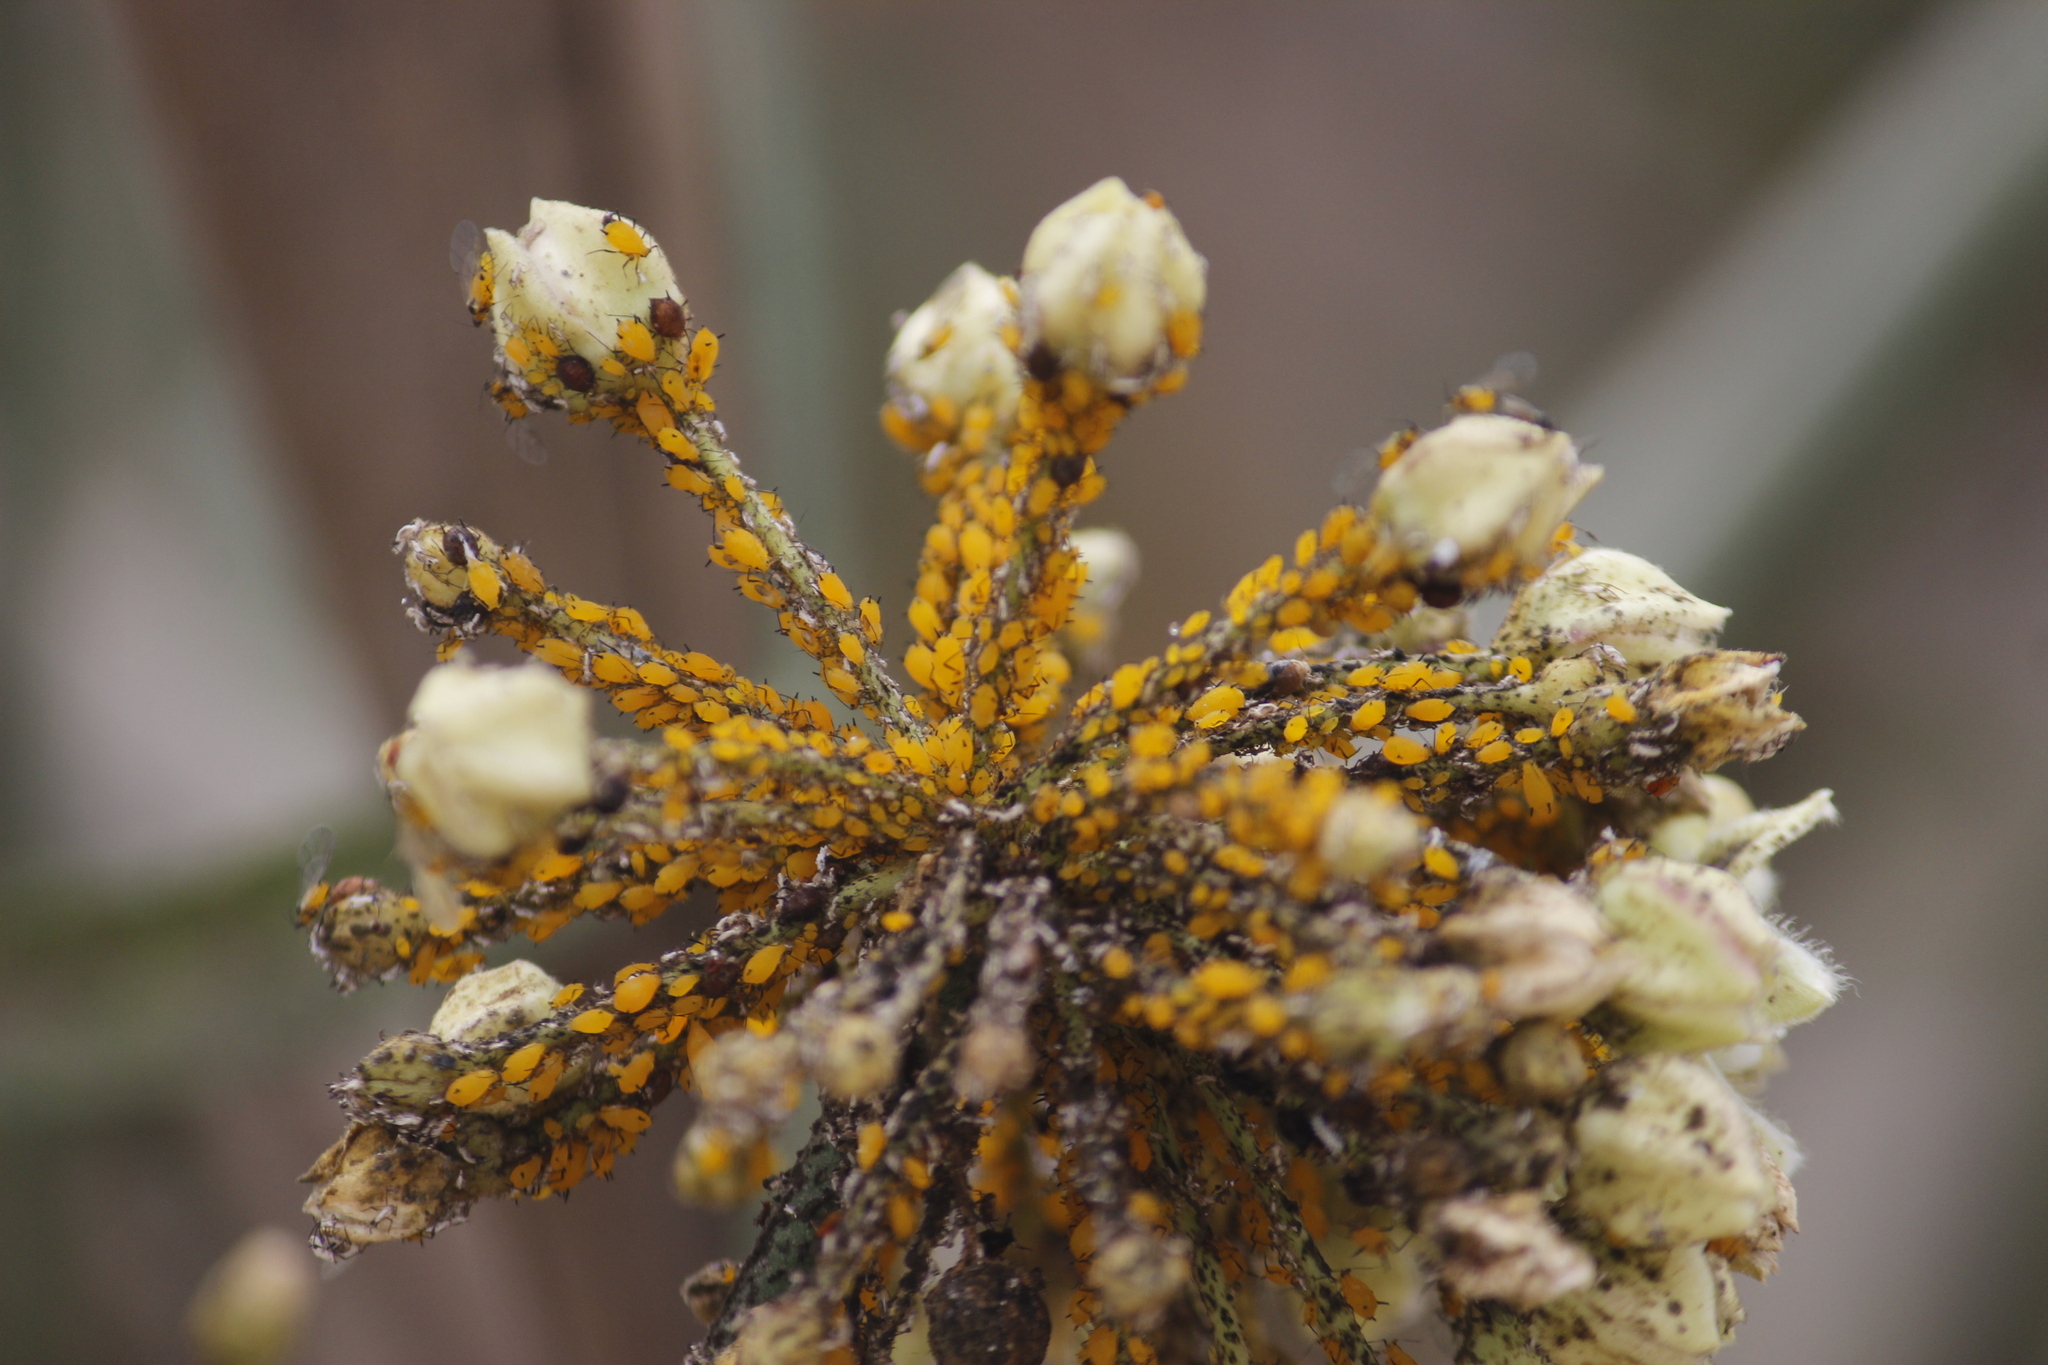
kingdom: Animalia
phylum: Arthropoda
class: Insecta
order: Hemiptera
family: Aphididae
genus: Aphis
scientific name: Aphis nerii
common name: Oleander aphid
